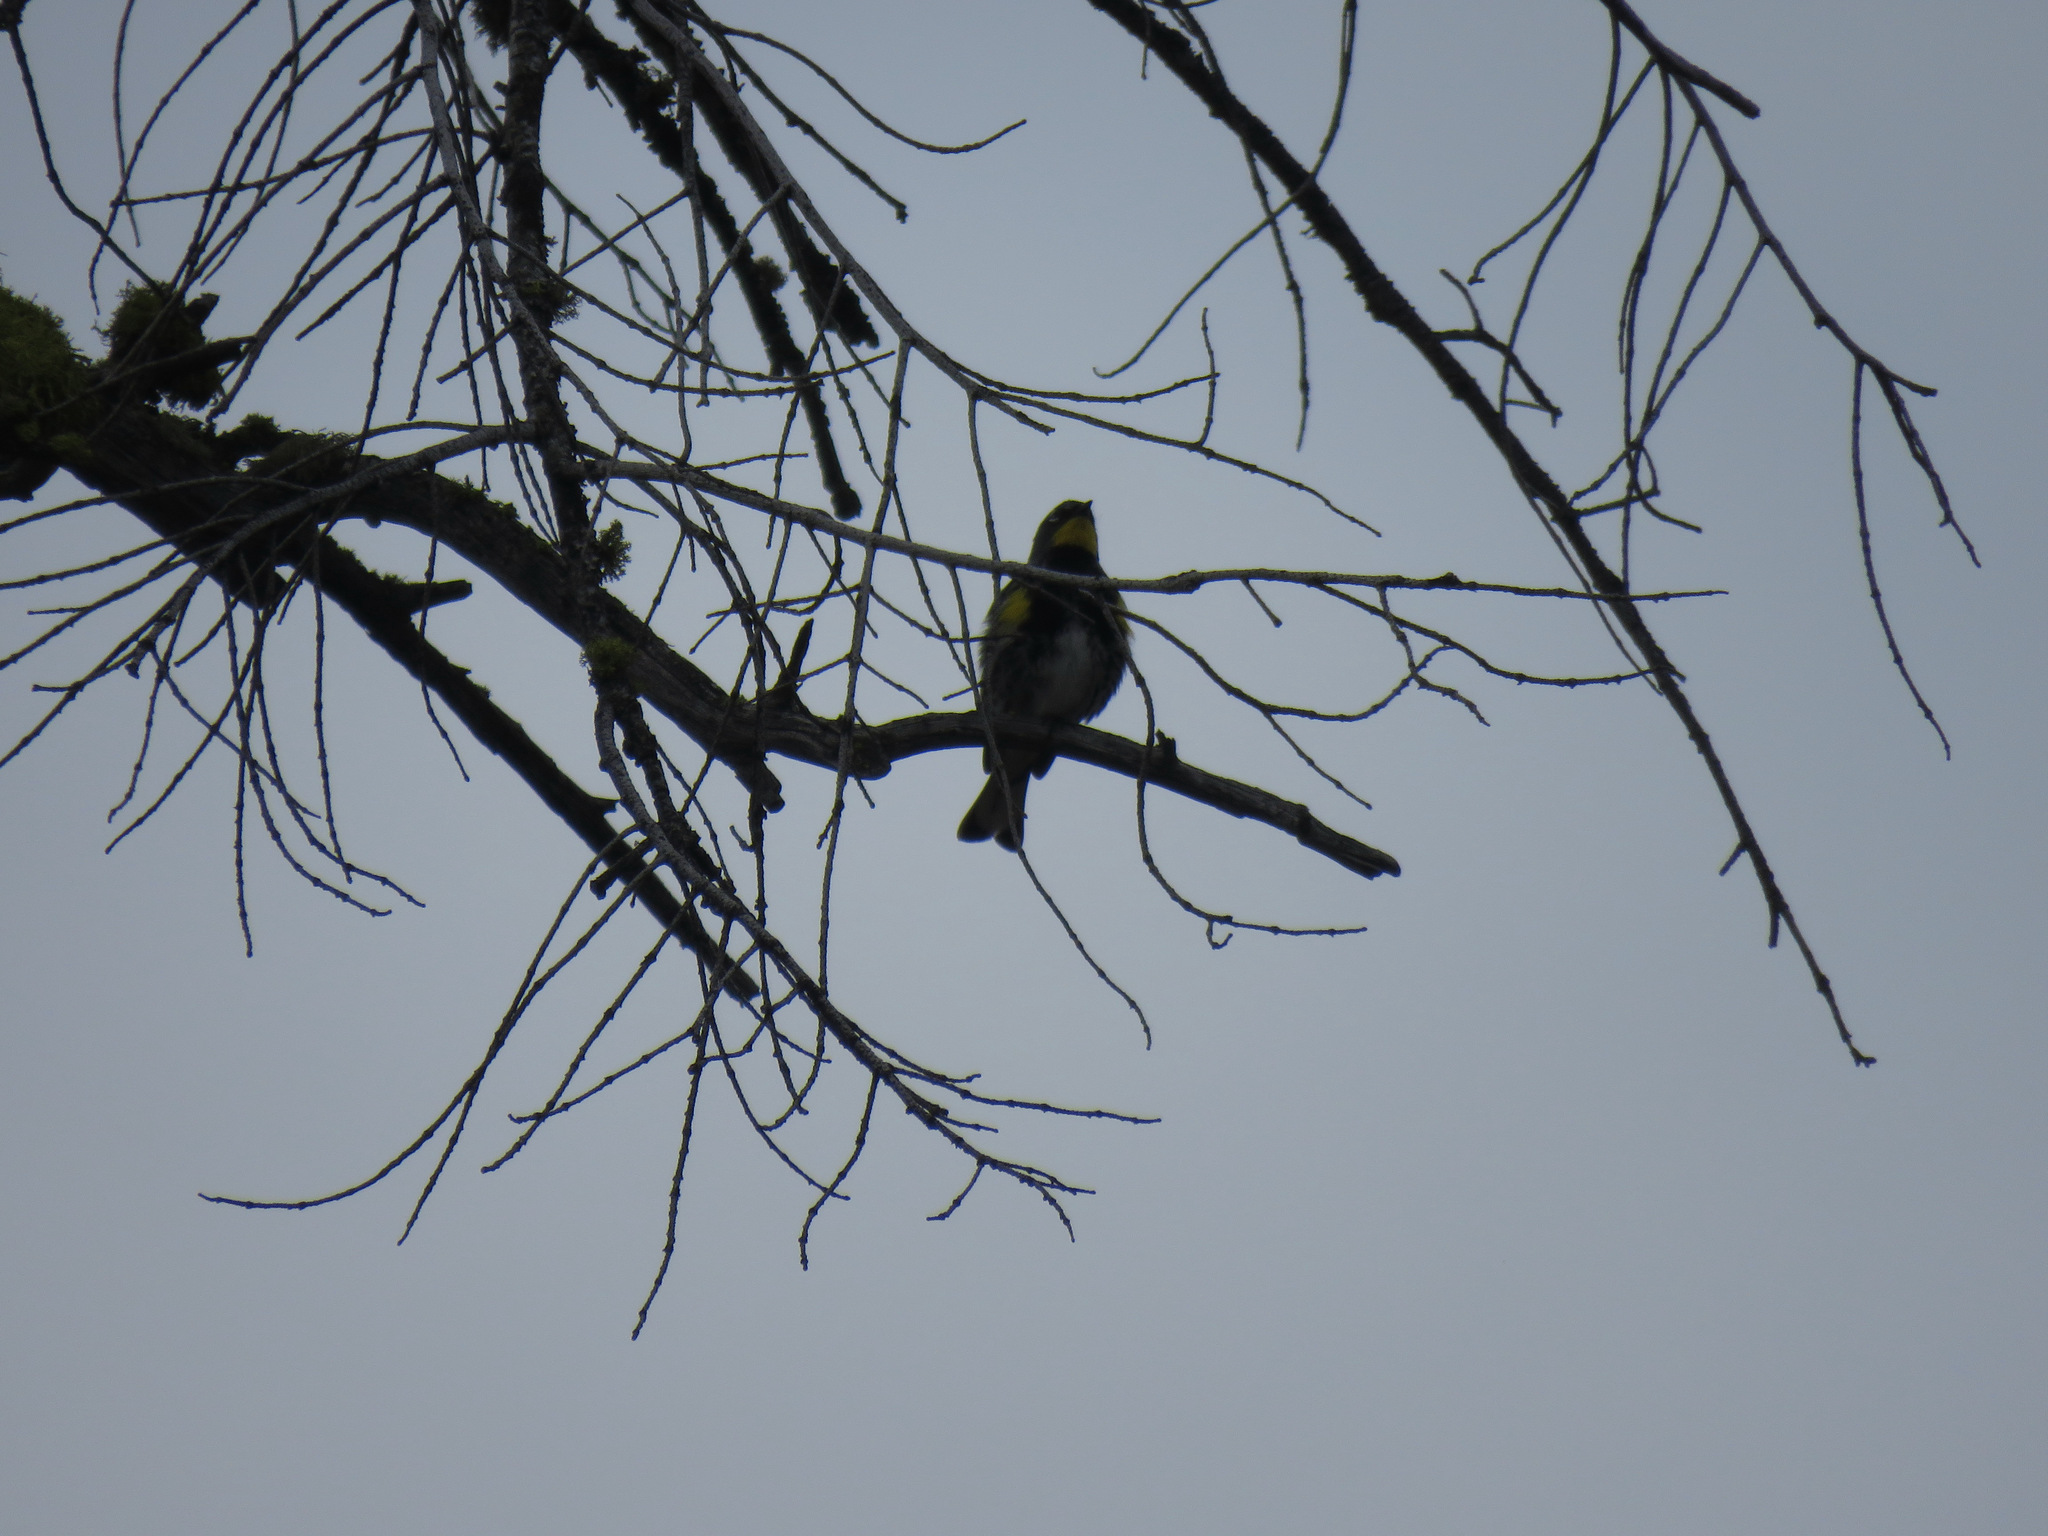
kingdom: Animalia
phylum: Chordata
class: Aves
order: Passeriformes
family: Parulidae
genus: Setophaga
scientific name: Setophaga coronata
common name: Myrtle warbler
